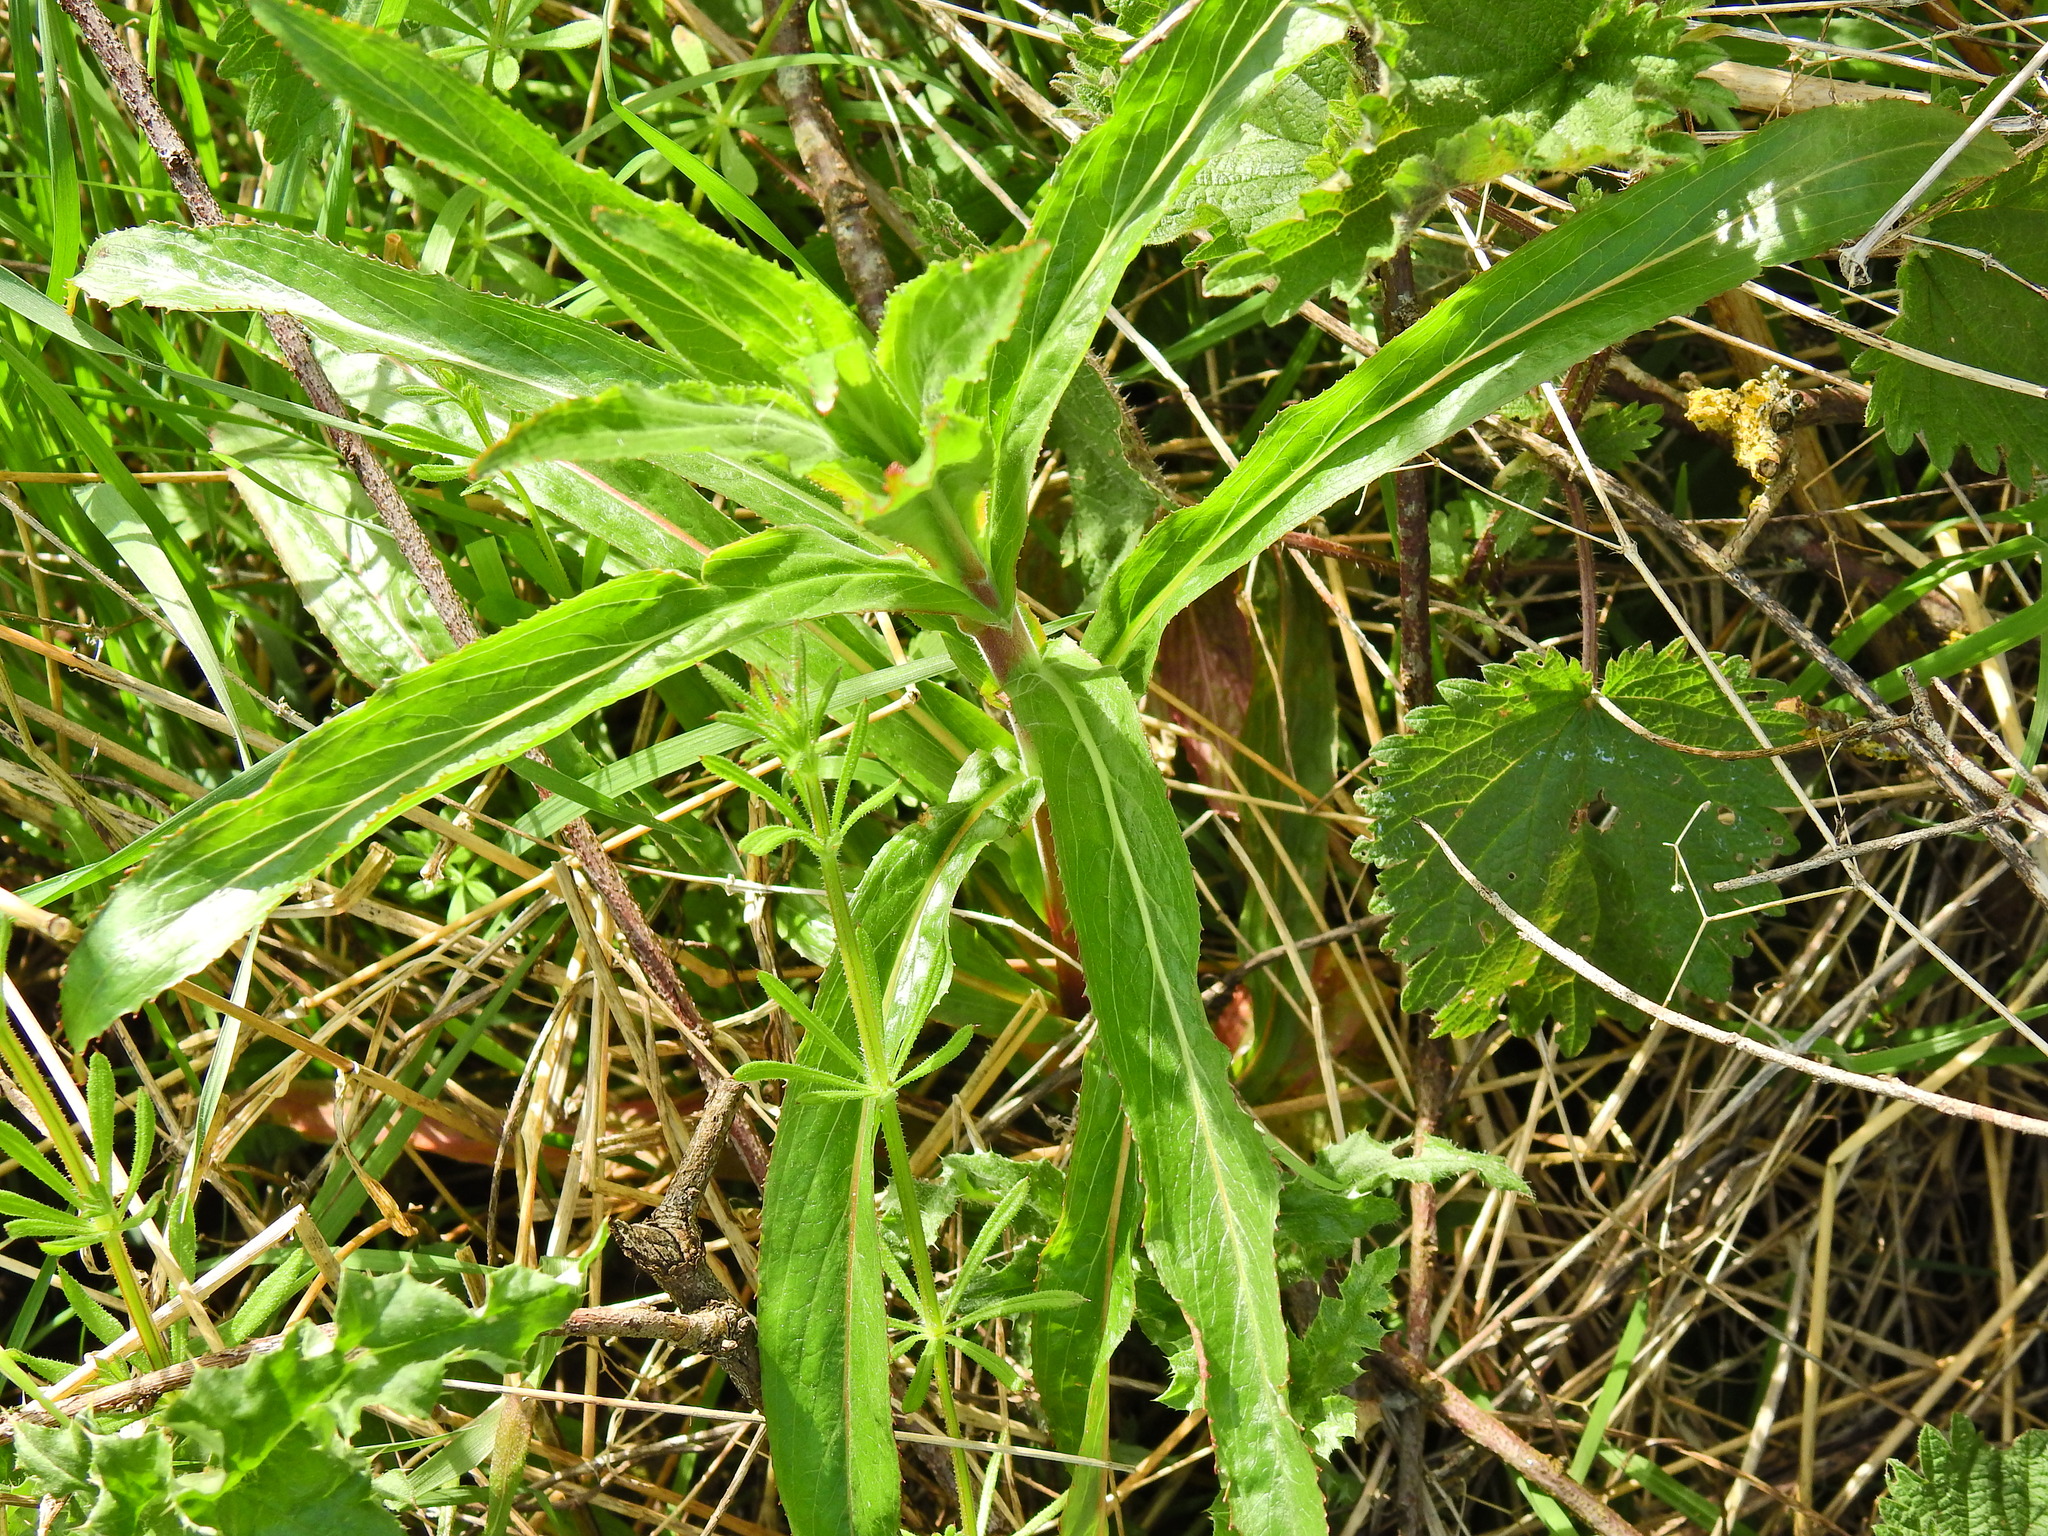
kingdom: Plantae
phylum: Tracheophyta
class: Magnoliopsida
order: Myrtales
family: Onagraceae
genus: Epilobium
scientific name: Epilobium hirsutum
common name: Great willowherb
